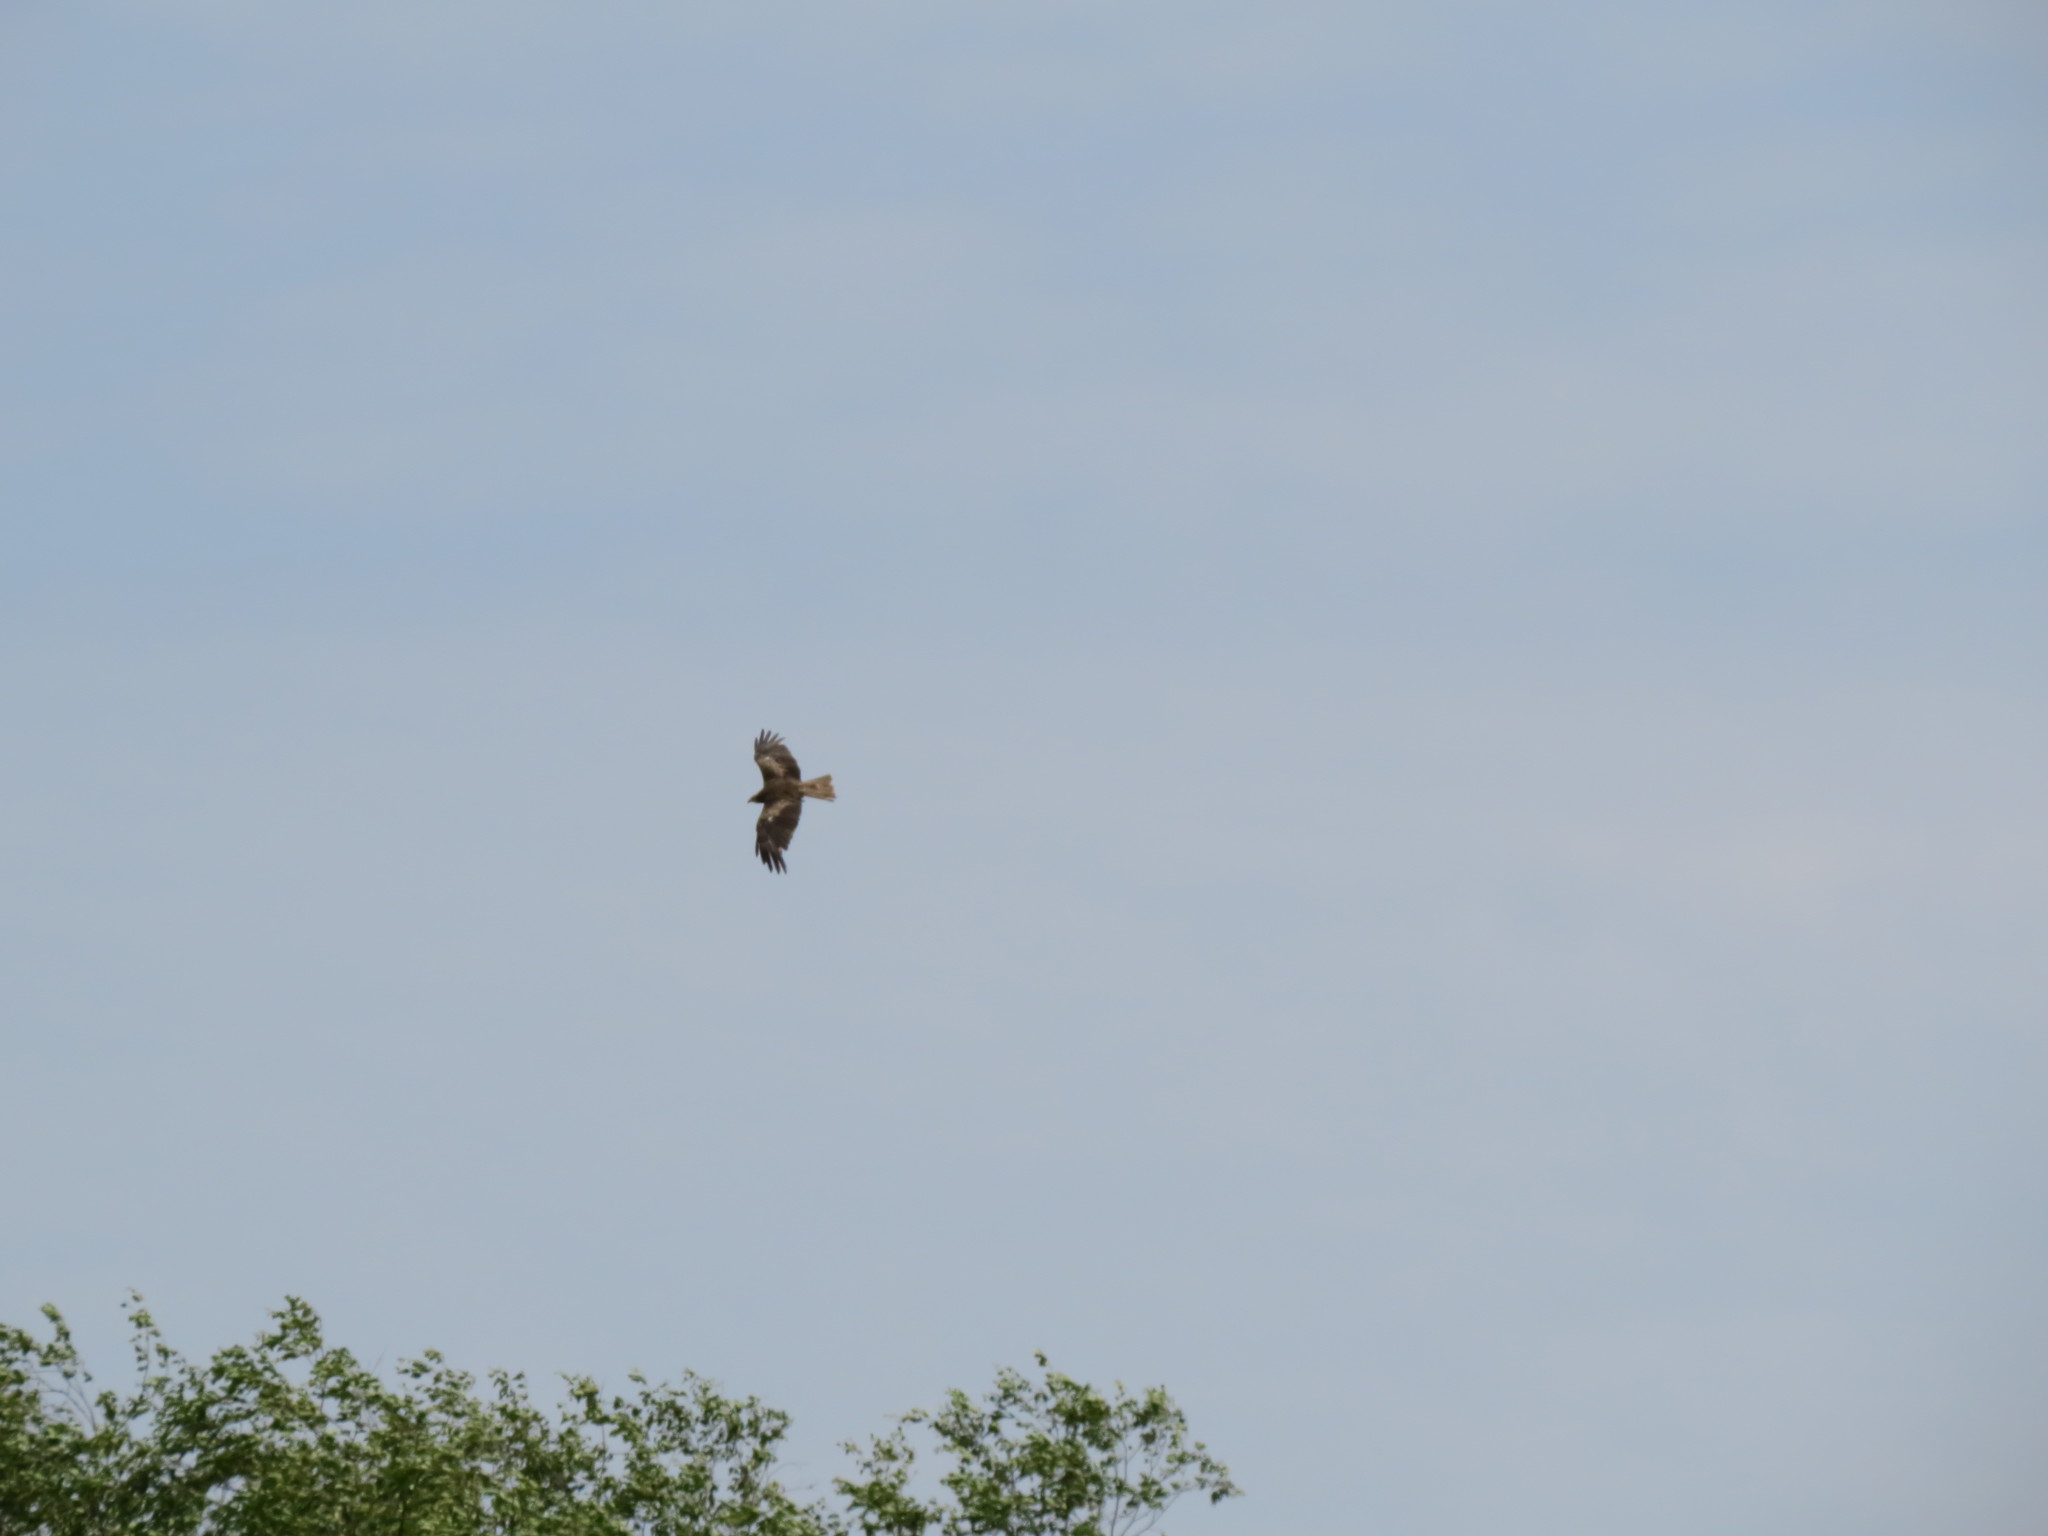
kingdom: Animalia
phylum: Chordata
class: Aves
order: Accipitriformes
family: Accipitridae
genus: Milvus
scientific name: Milvus migrans
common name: Black kite
